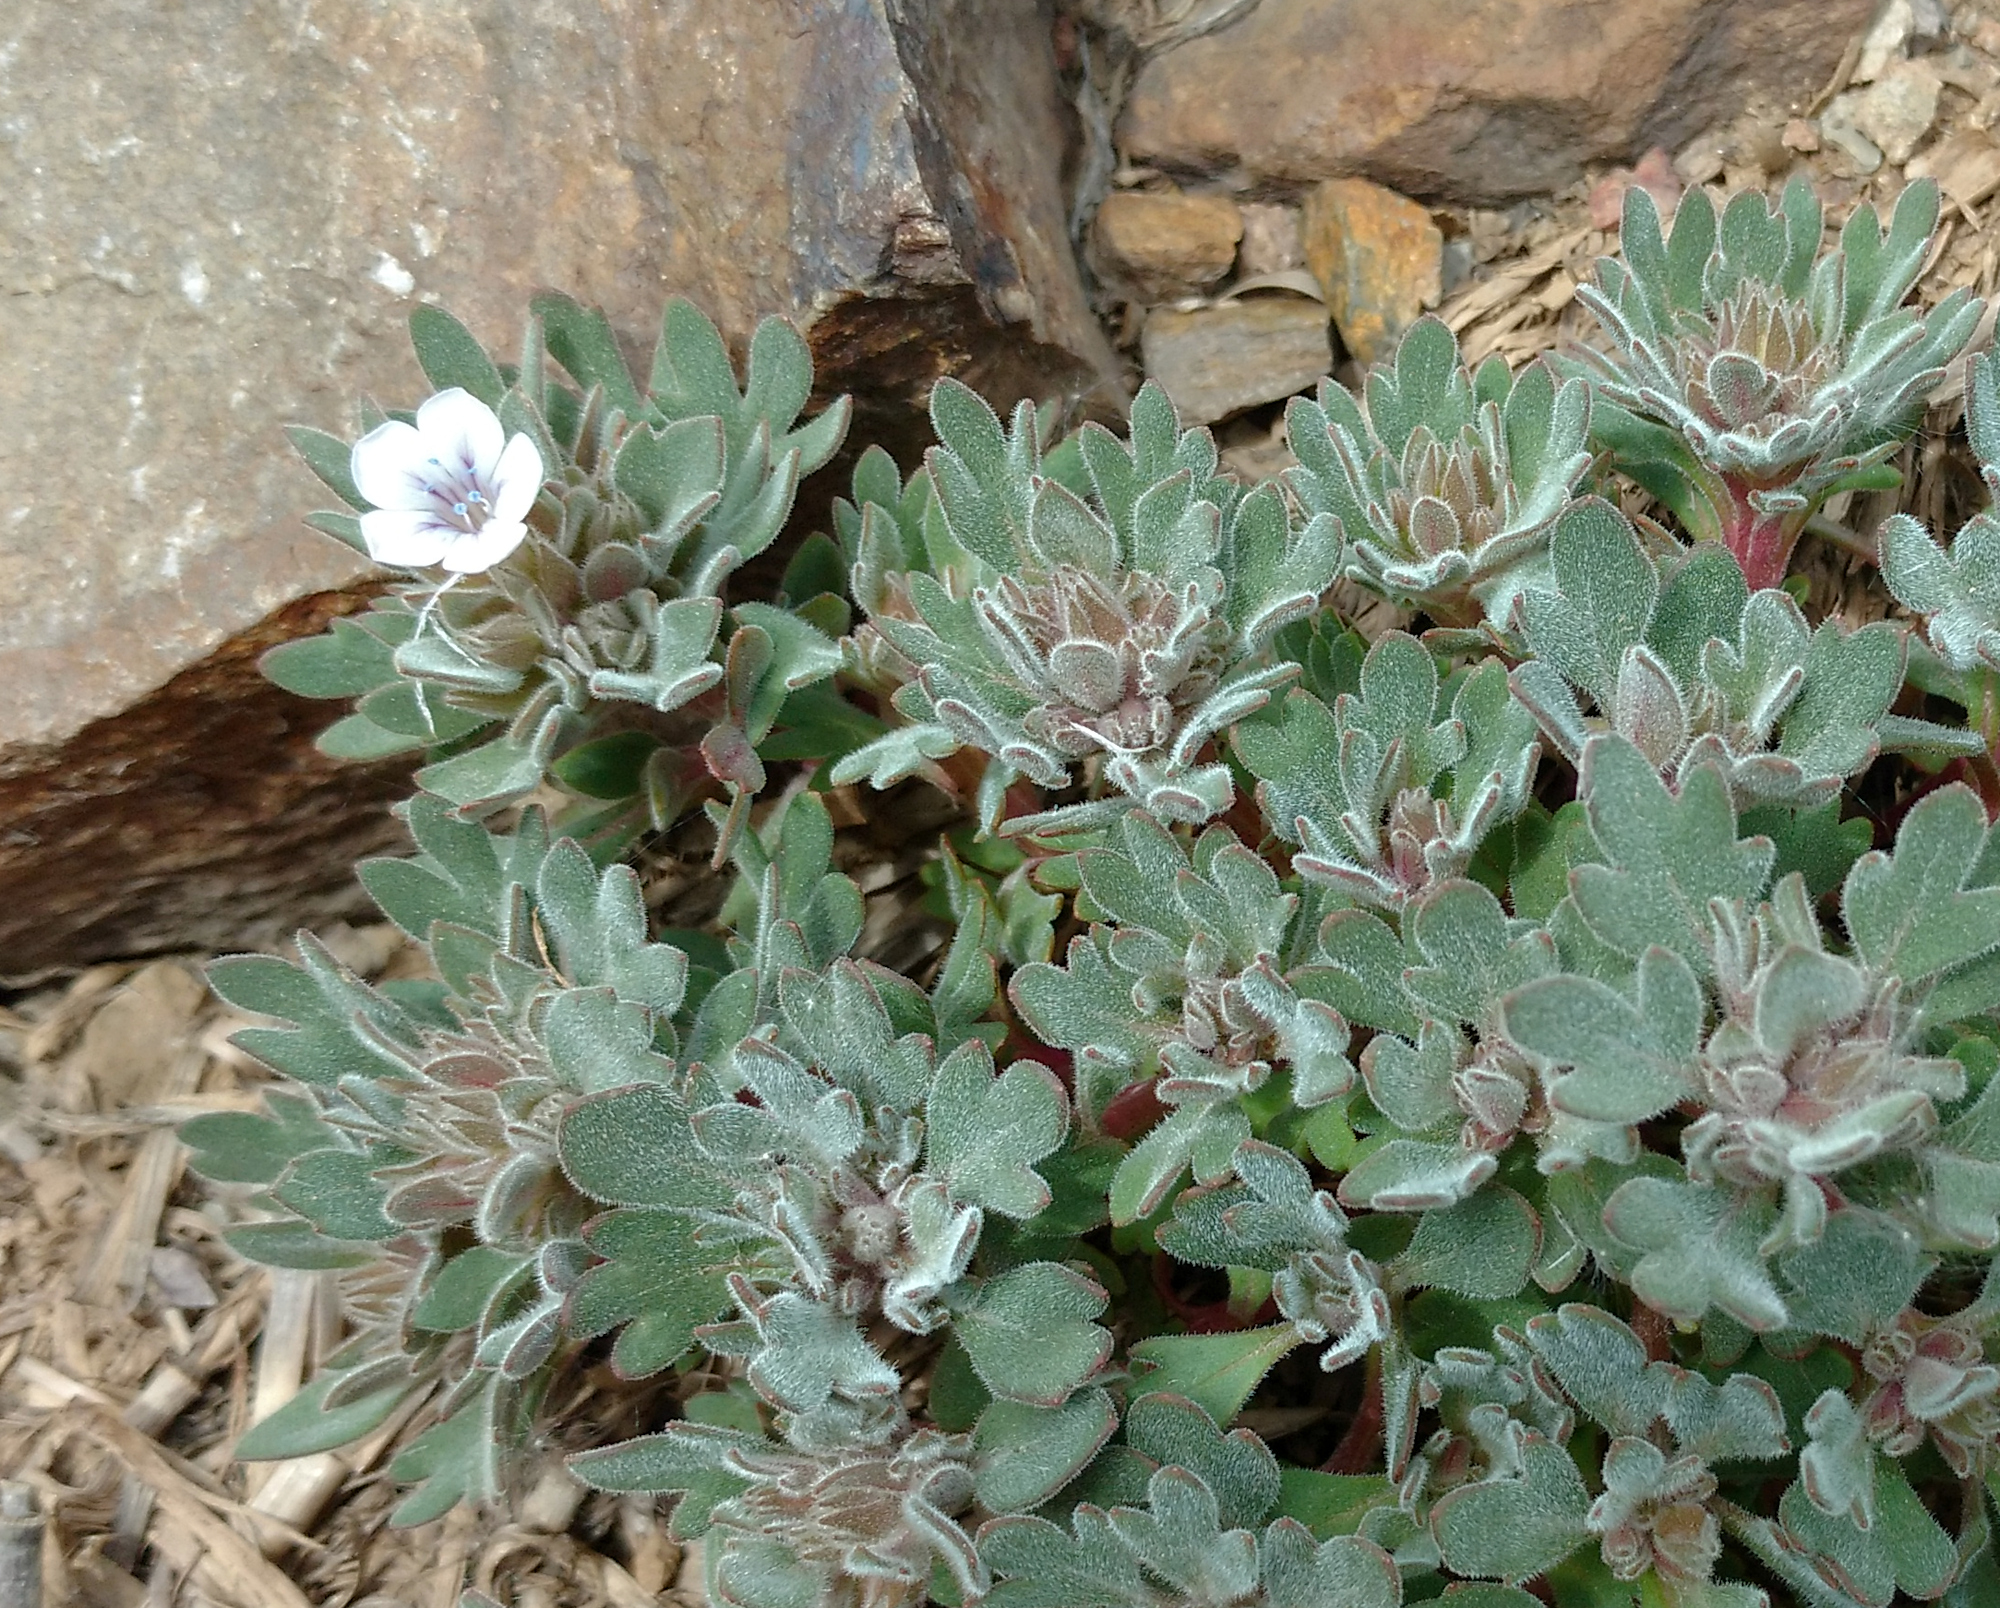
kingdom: Plantae
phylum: Tracheophyta
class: Magnoliopsida
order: Ericales
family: Polemoniaceae
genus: Collomia
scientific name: Collomia debilis
